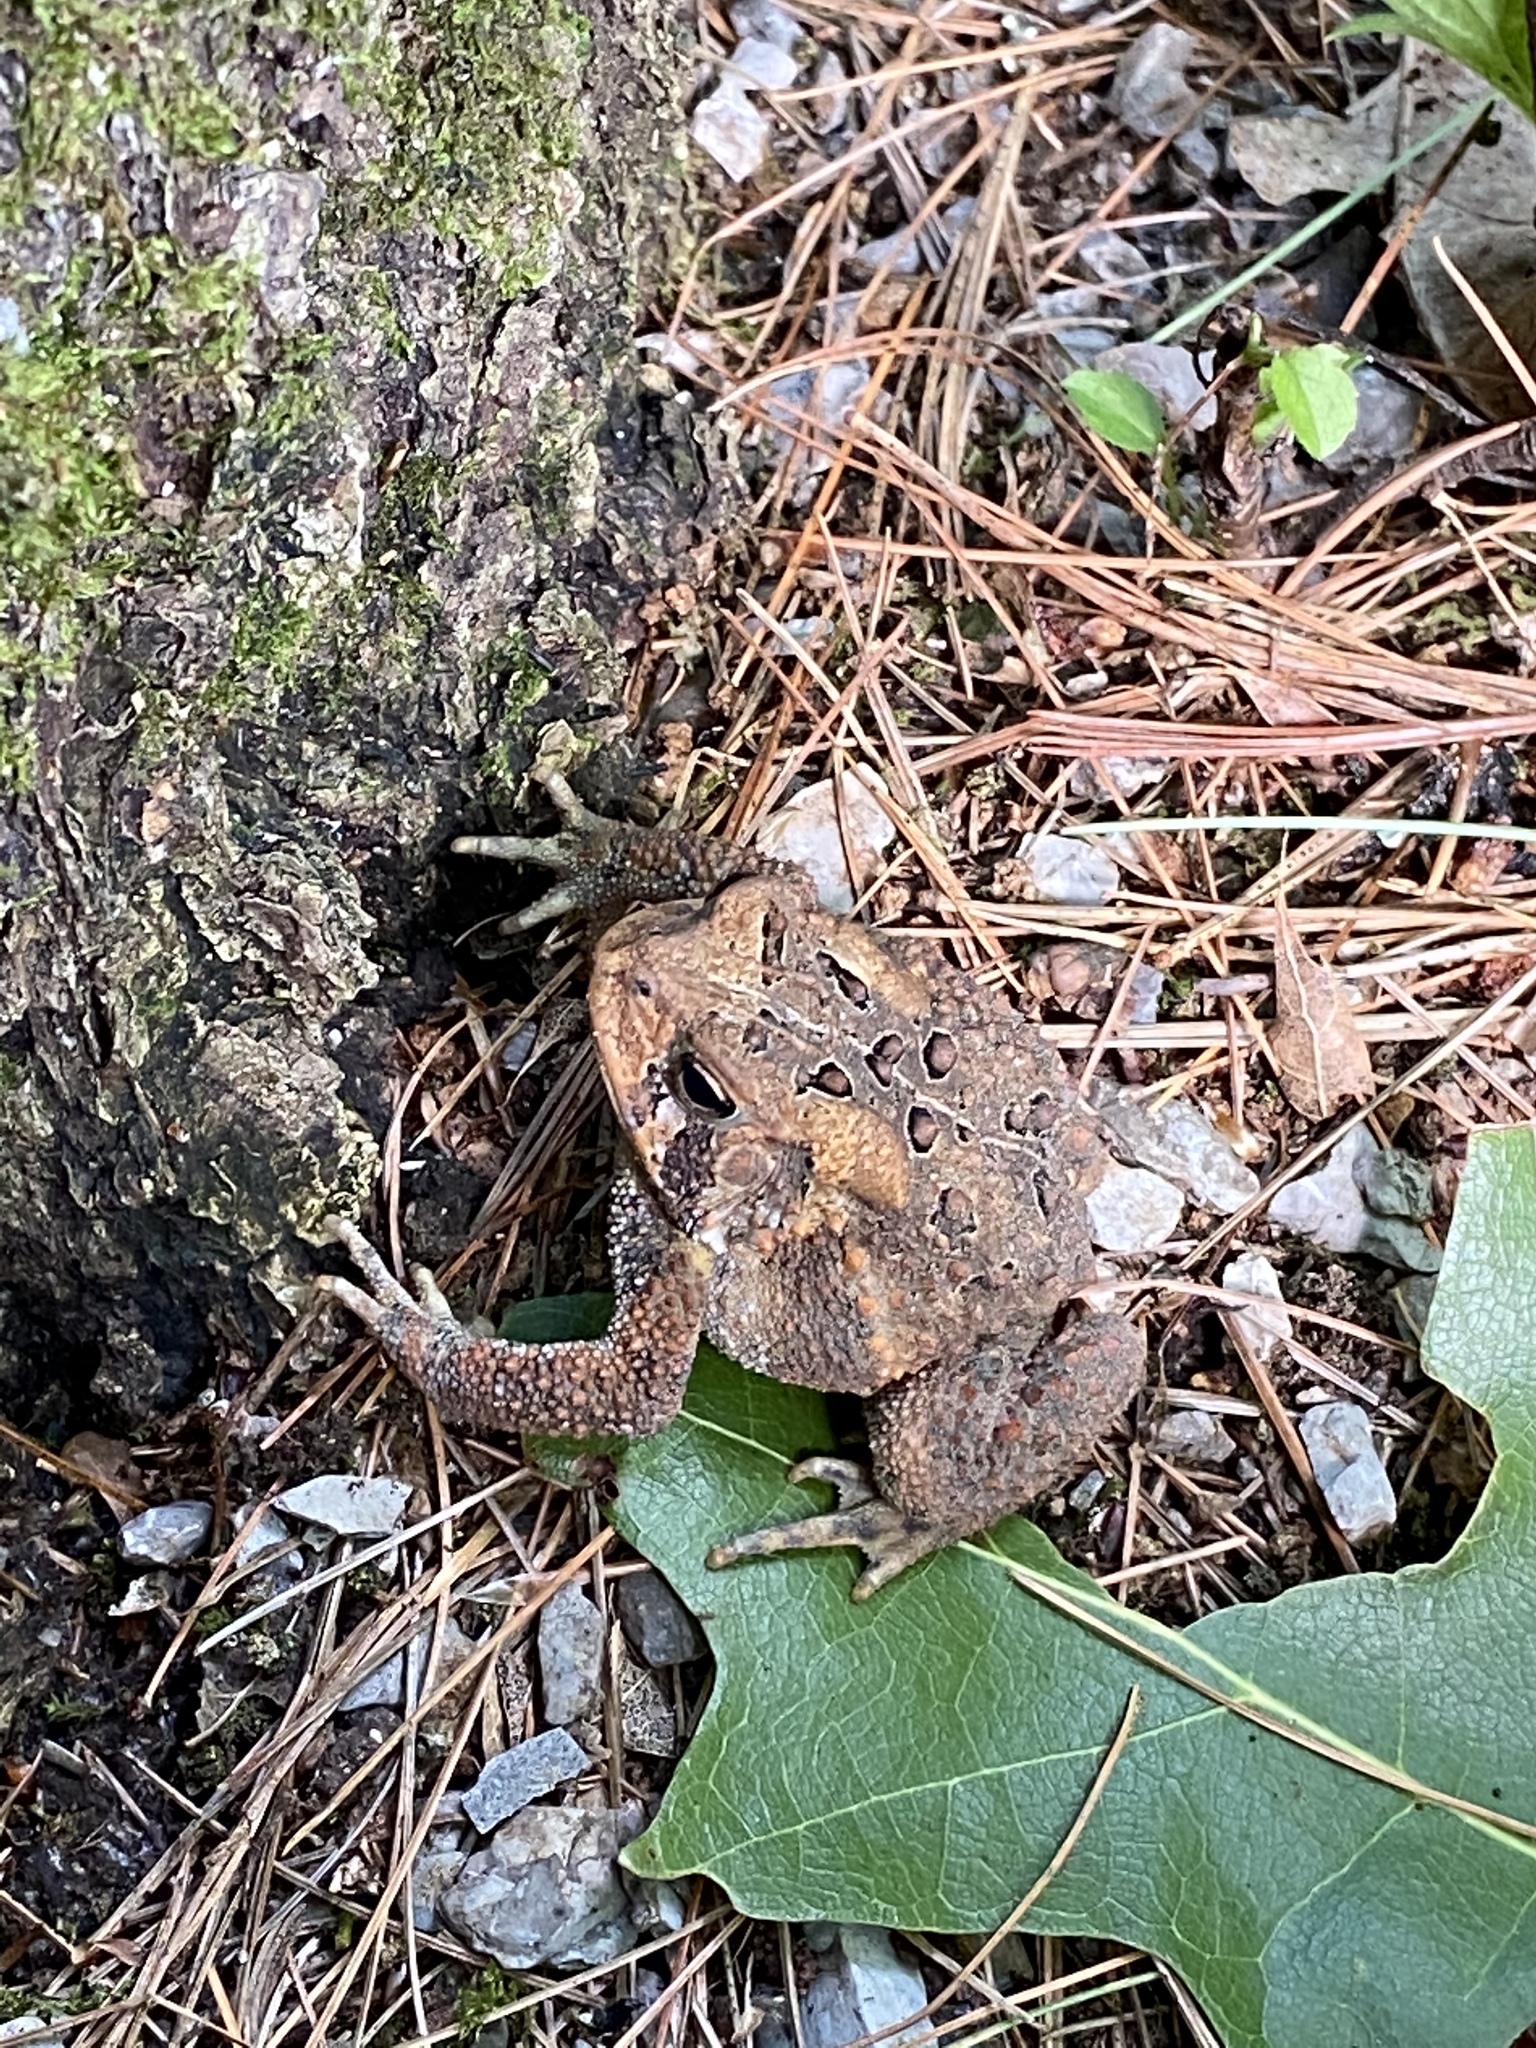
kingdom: Animalia
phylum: Chordata
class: Amphibia
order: Anura
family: Bufonidae
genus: Anaxyrus
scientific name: Anaxyrus americanus
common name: American toad
